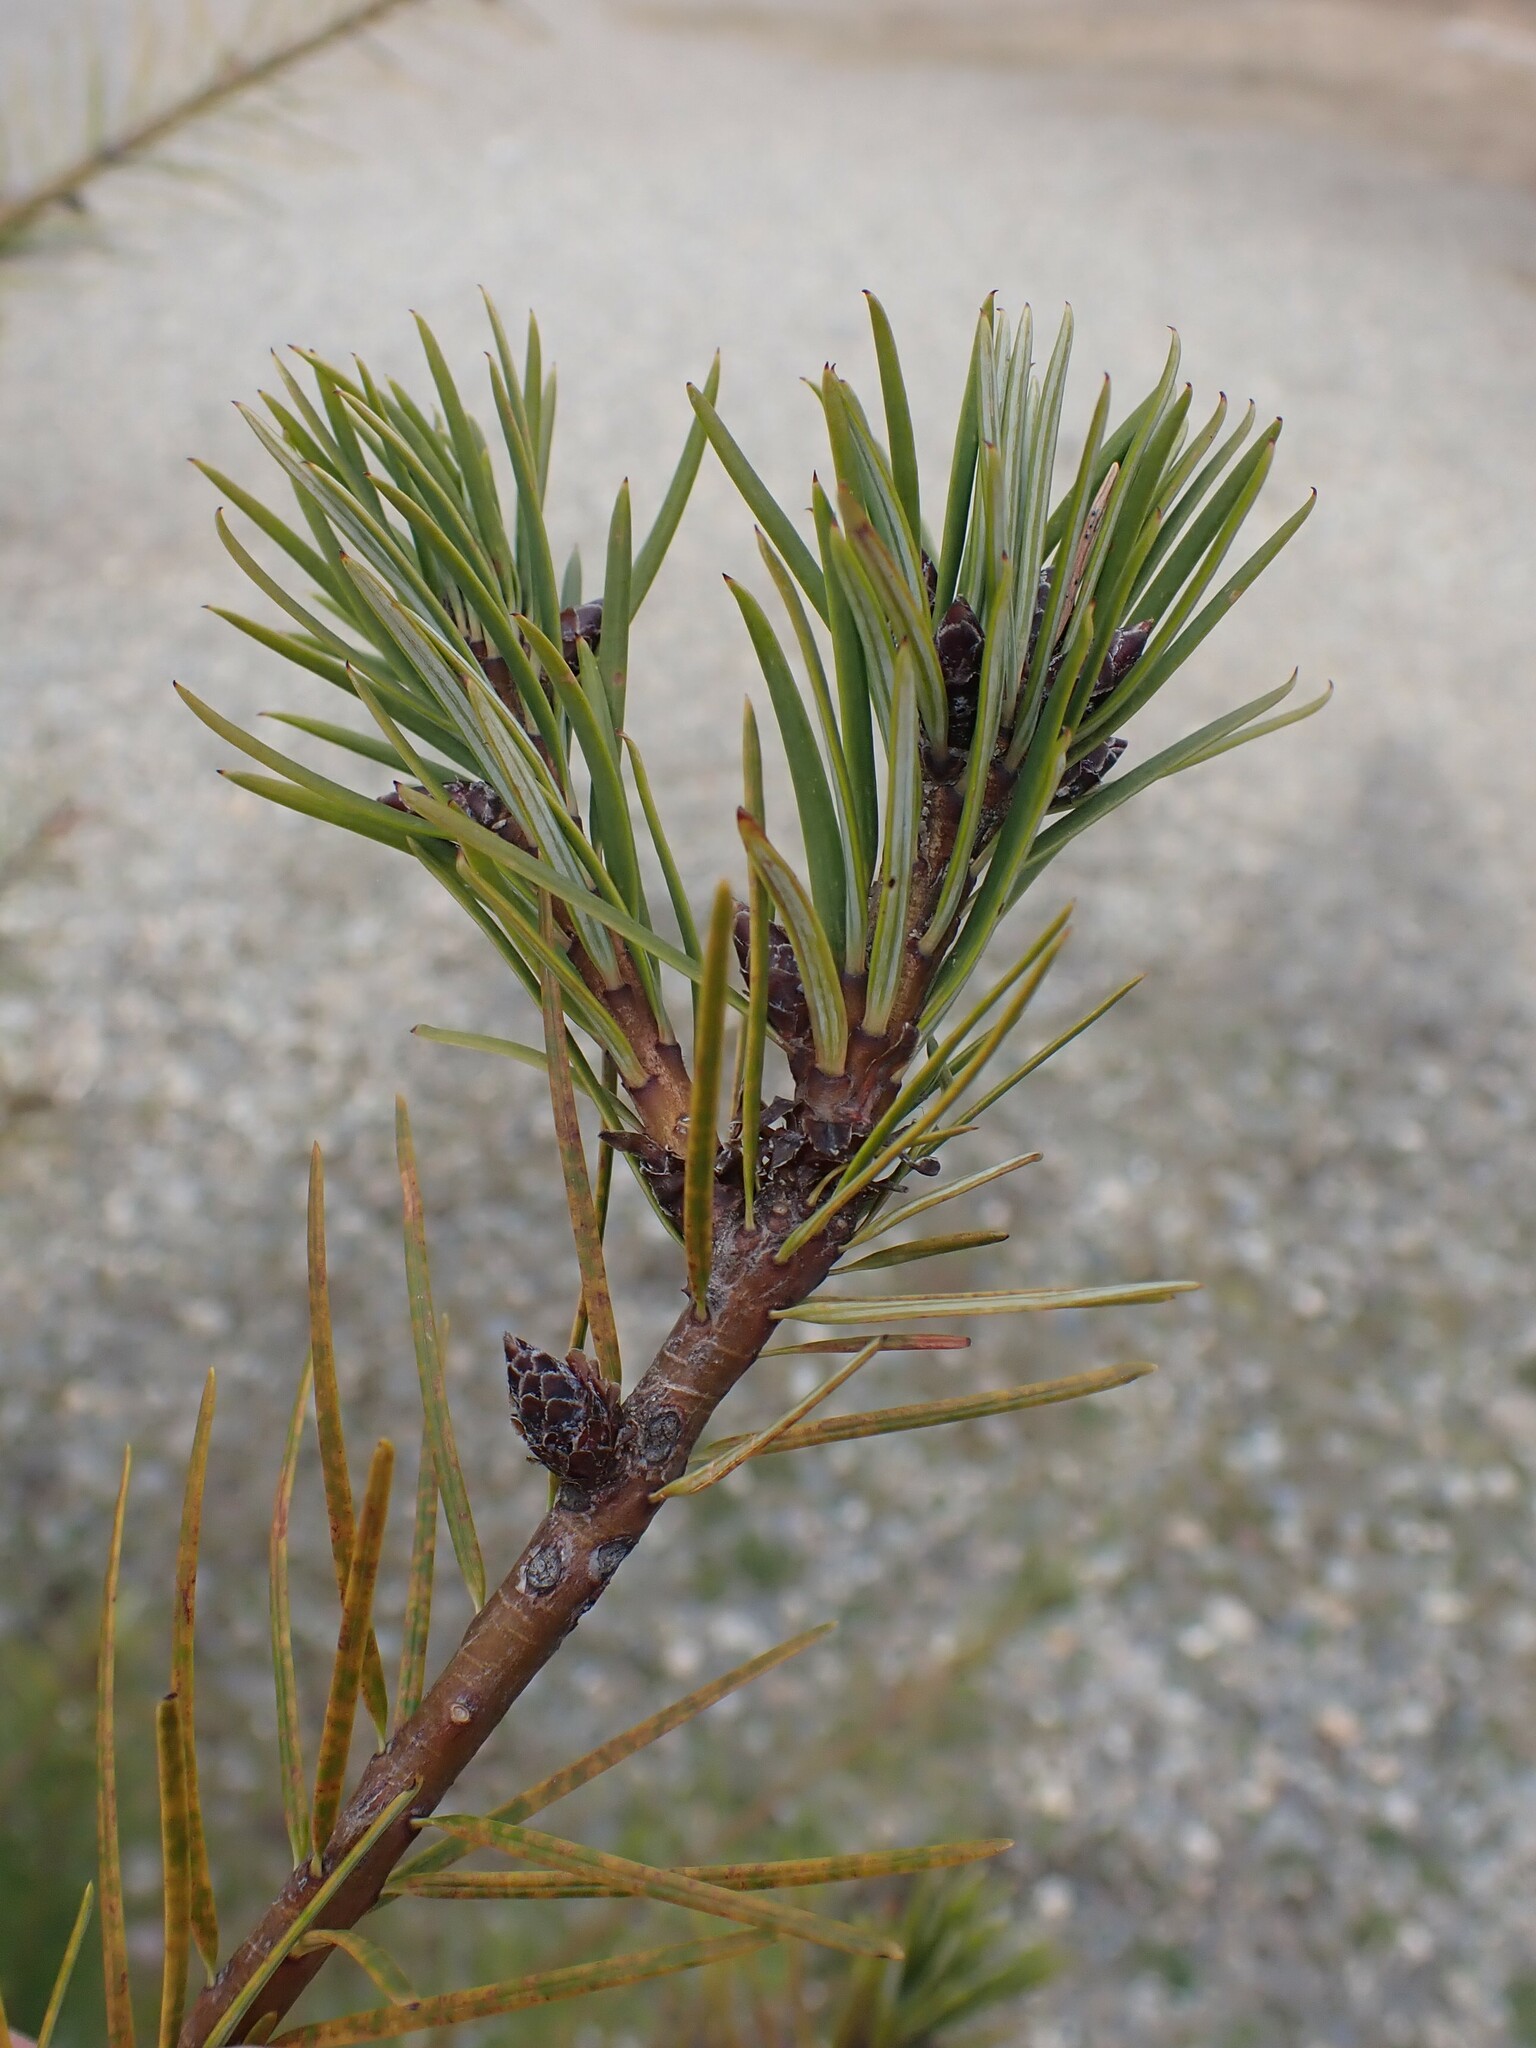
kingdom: Plantae
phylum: Tracheophyta
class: Pinopsida
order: Pinales
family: Pinaceae
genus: Pseudotsuga
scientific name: Pseudotsuga menziesii
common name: Douglas fir
